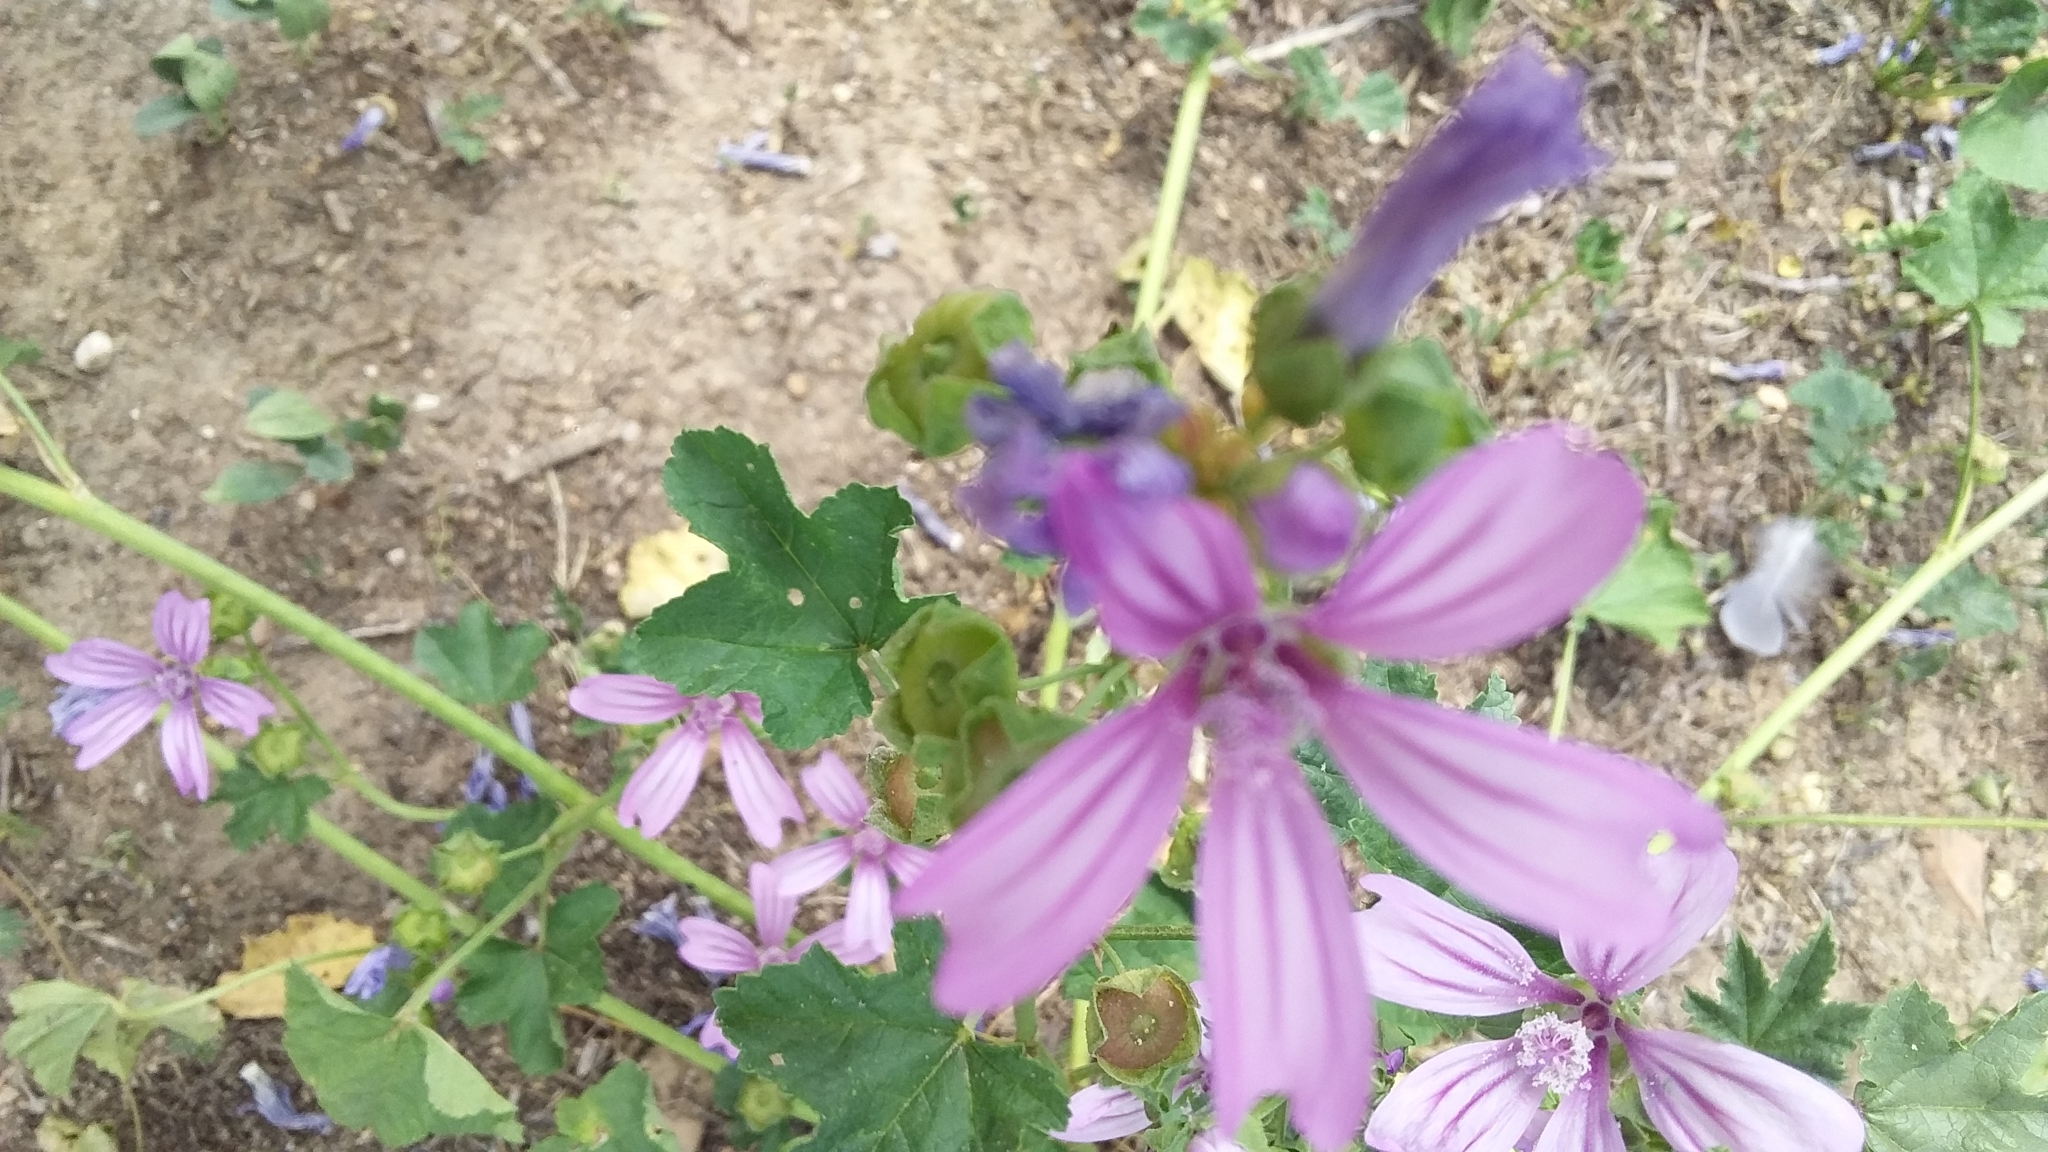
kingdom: Plantae
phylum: Tracheophyta
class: Magnoliopsida
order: Malvales
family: Malvaceae
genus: Malva
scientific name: Malva sylvestris
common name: Common mallow
